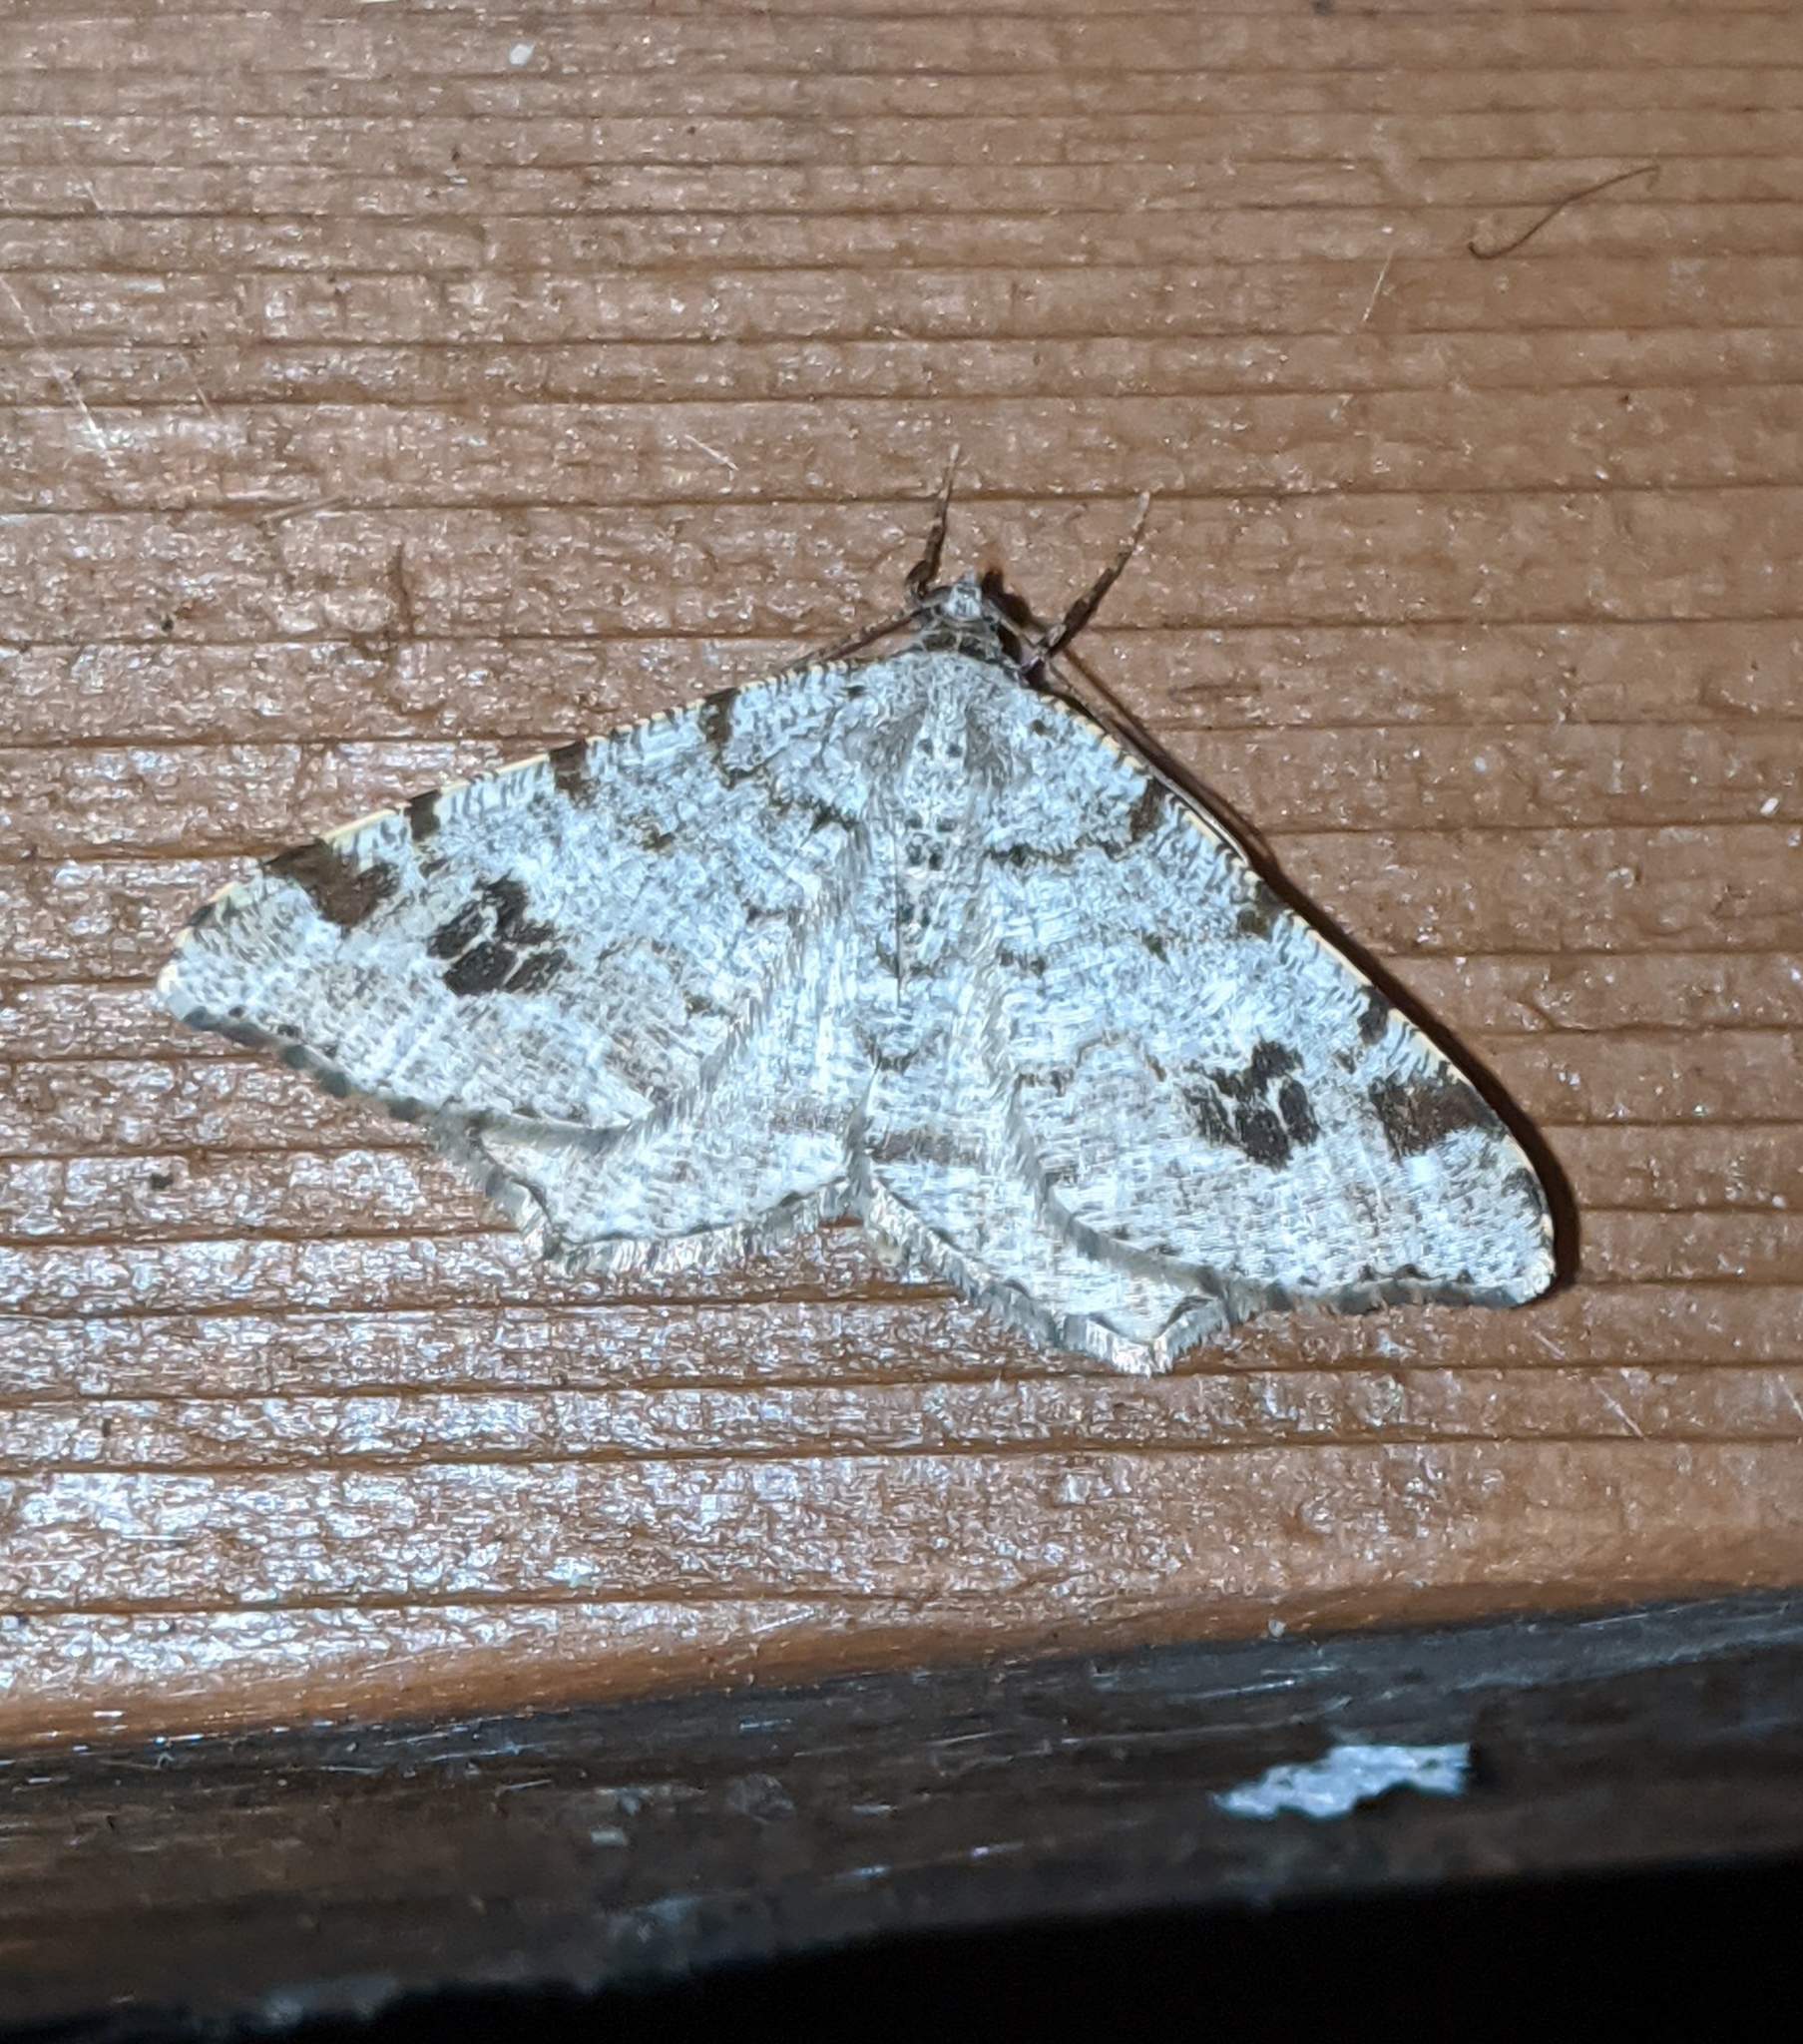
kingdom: Animalia
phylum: Arthropoda
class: Insecta
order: Lepidoptera
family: Geometridae
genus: Macaria
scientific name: Macaria ulsterata
